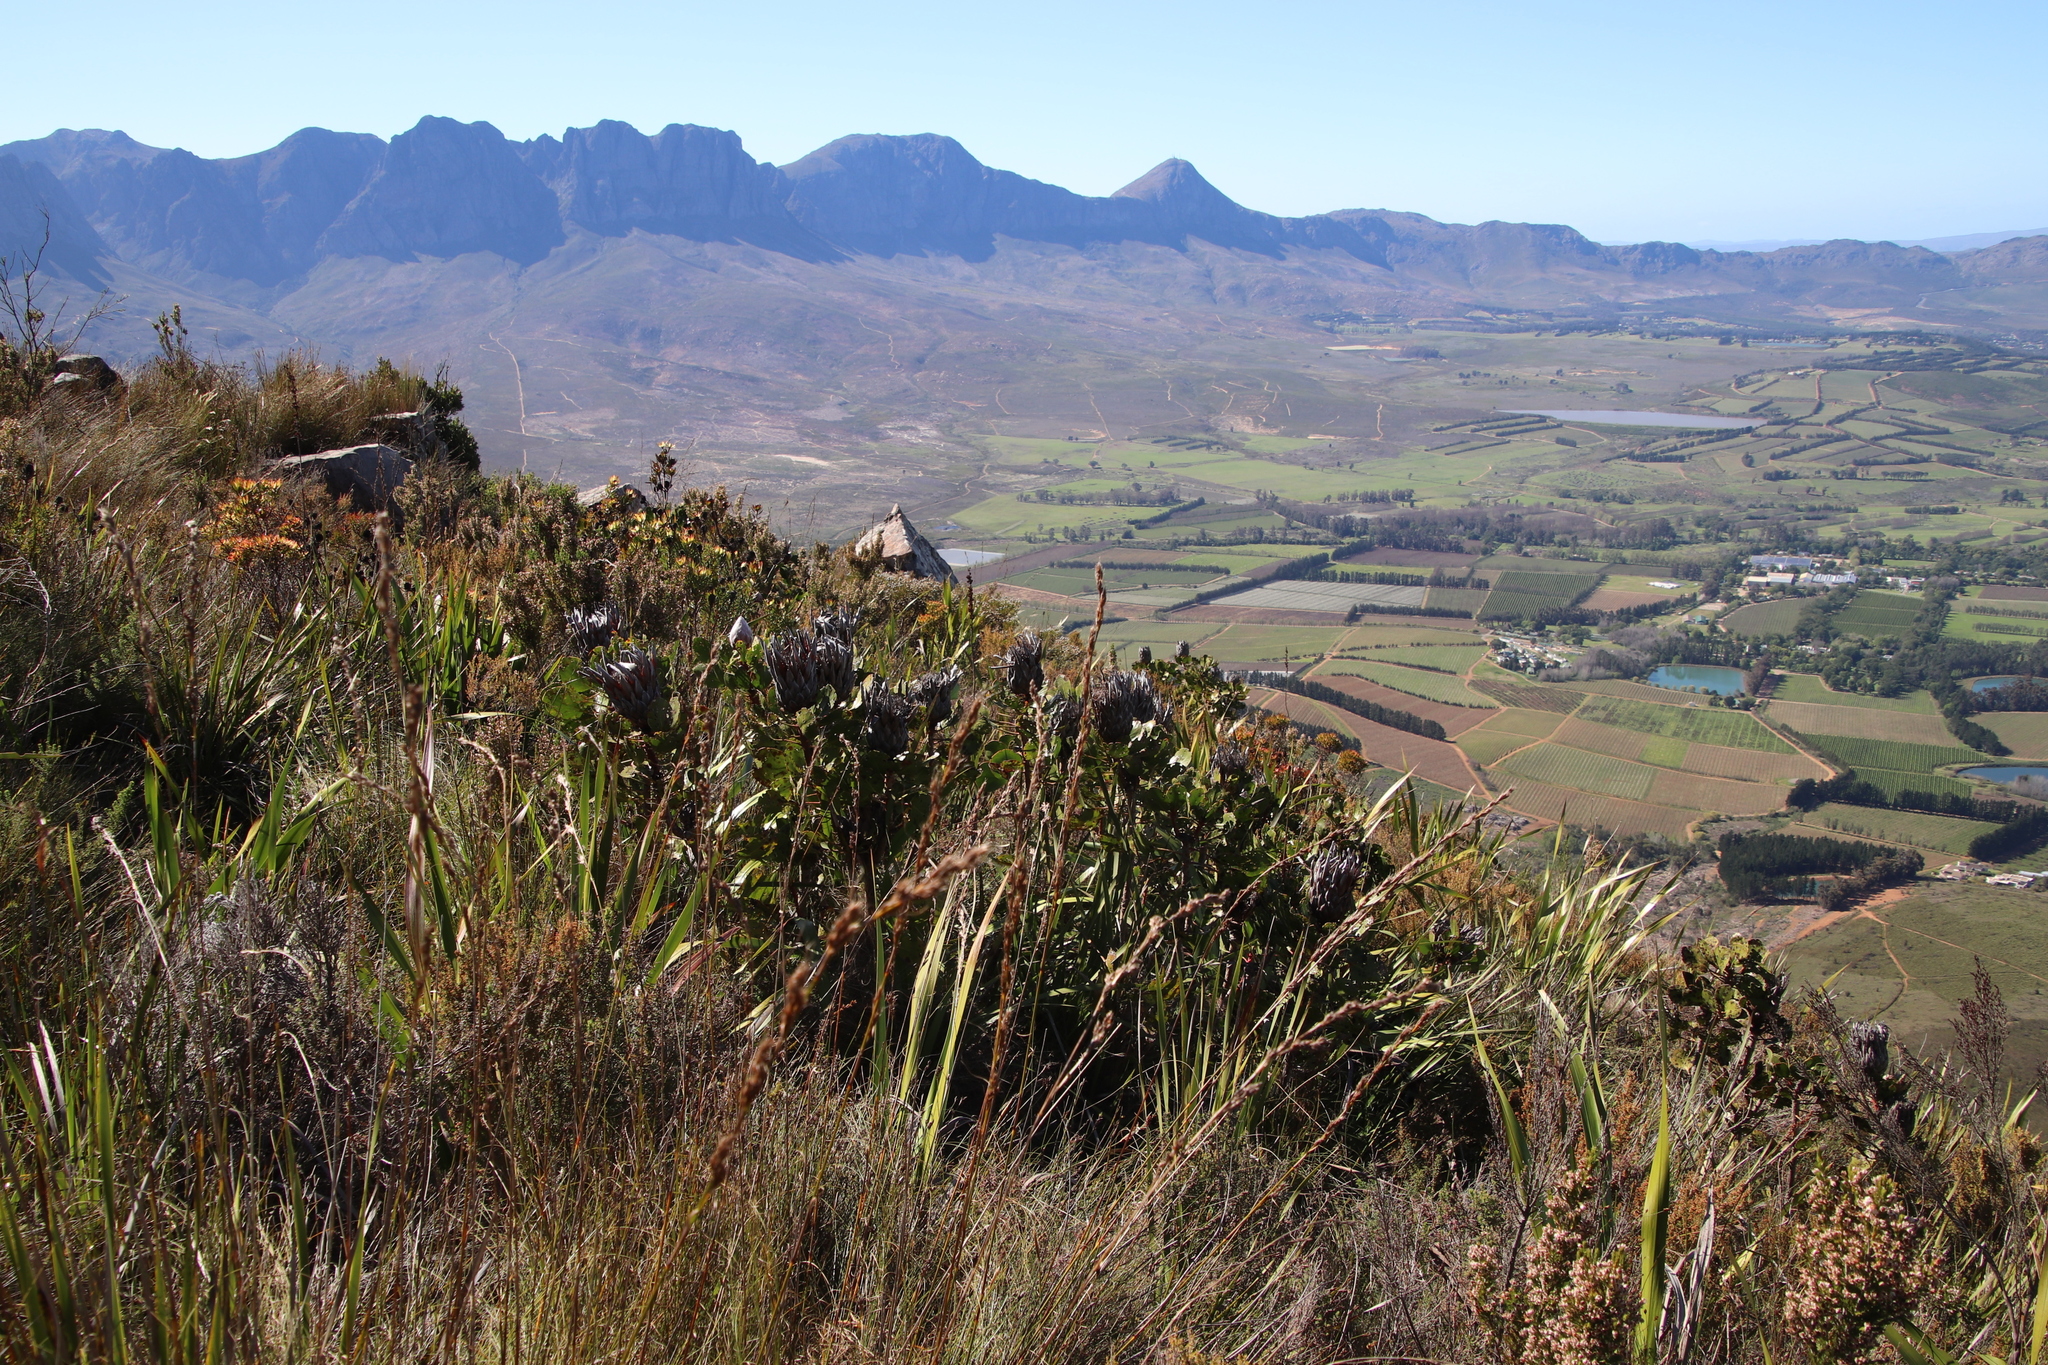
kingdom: Plantae
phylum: Tracheophyta
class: Magnoliopsida
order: Proteales
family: Proteaceae
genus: Protea
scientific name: Protea cynaroides
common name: King protea
